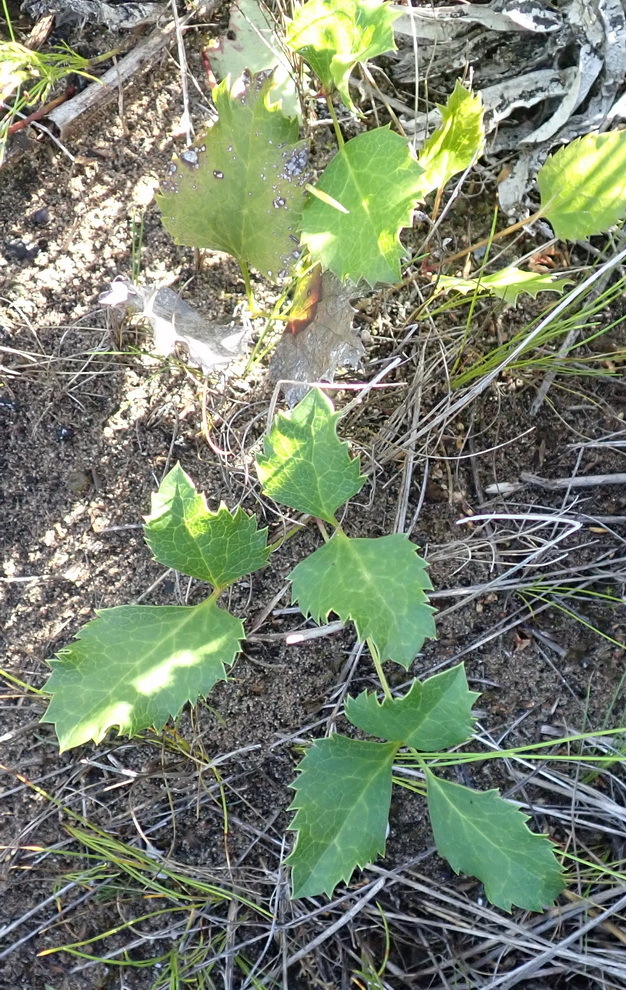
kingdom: Plantae
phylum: Tracheophyta
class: Magnoliopsida
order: Ranunculales
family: Ranunculaceae
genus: Knowltonia
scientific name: Knowltonia vesicatoria
